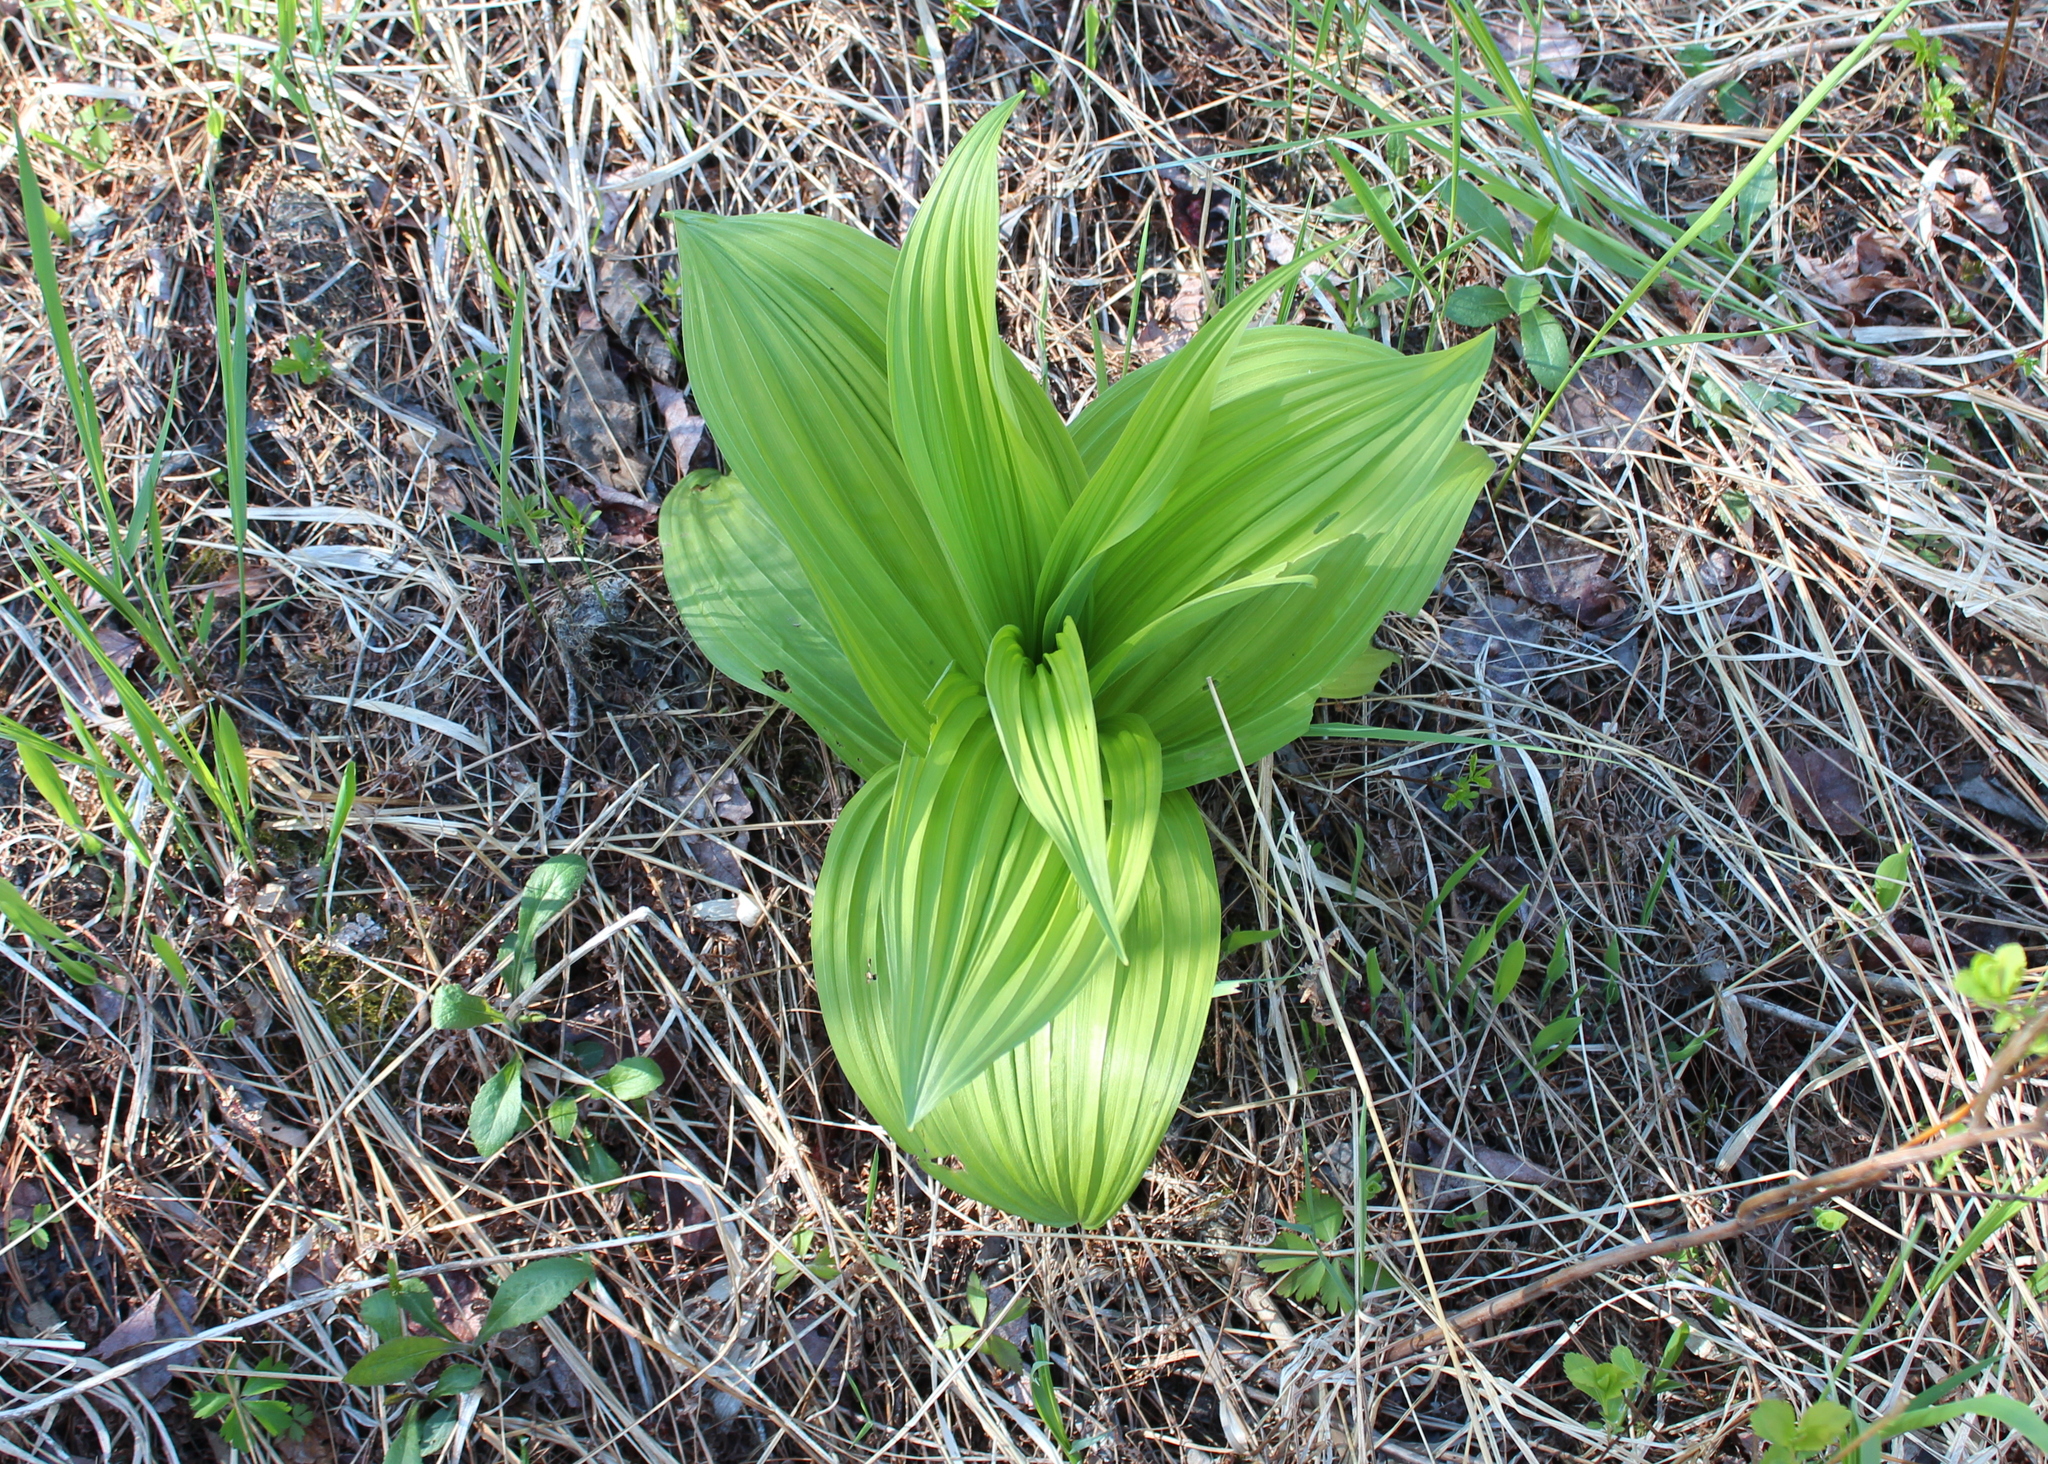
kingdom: Plantae
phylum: Tracheophyta
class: Liliopsida
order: Liliales
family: Melanthiaceae
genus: Veratrum
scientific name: Veratrum viride
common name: American false hellebore
